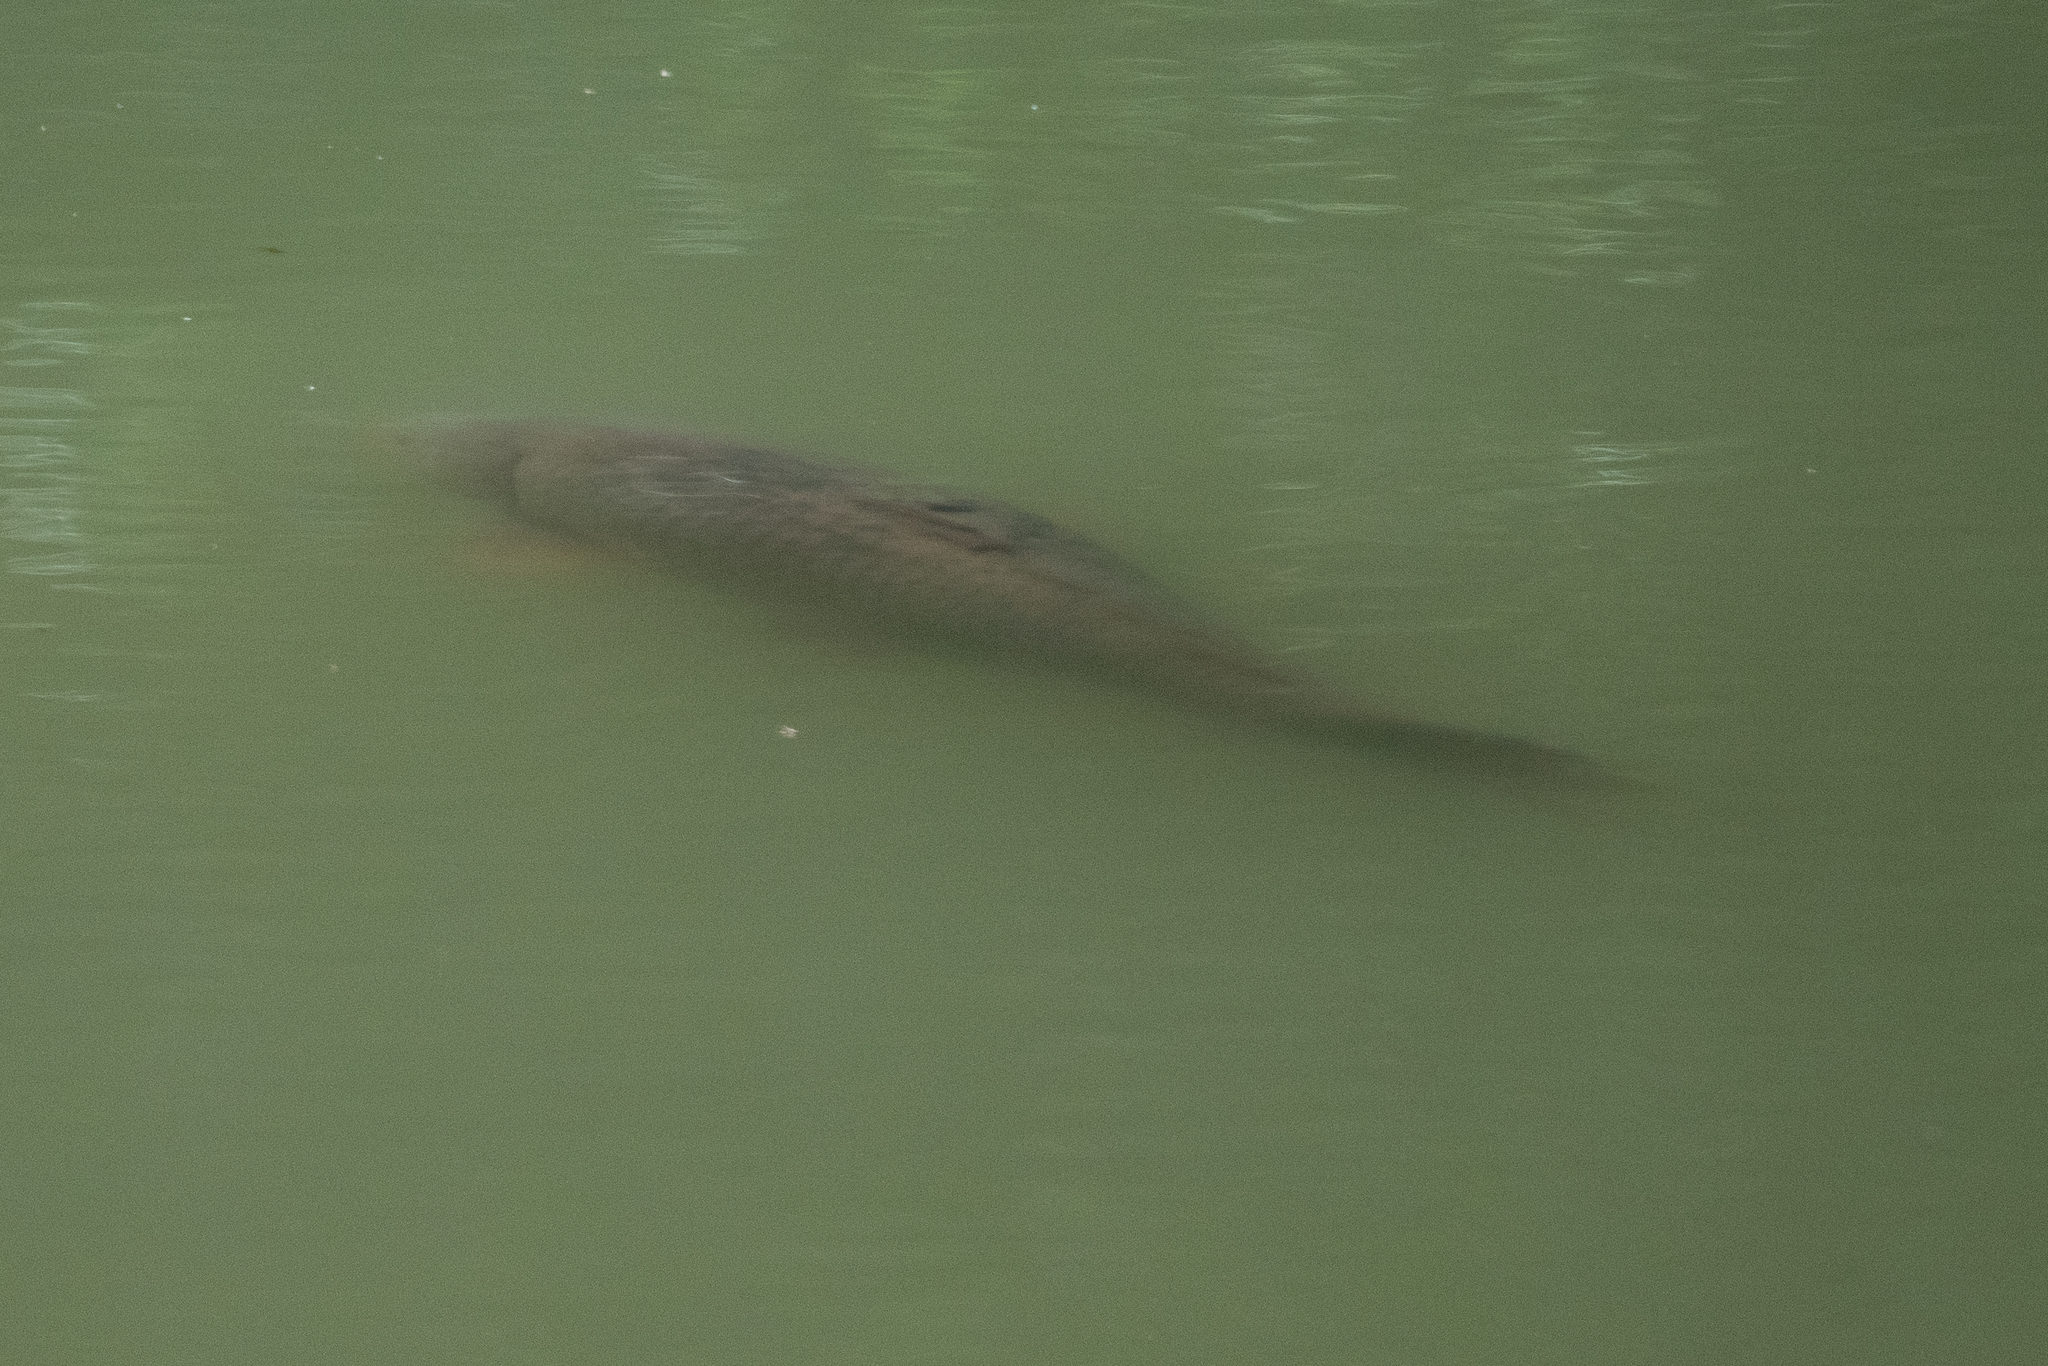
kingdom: Animalia
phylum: Chordata
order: Cypriniformes
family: Cyprinidae
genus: Cyprinus
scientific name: Cyprinus carpio
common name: Common carp
